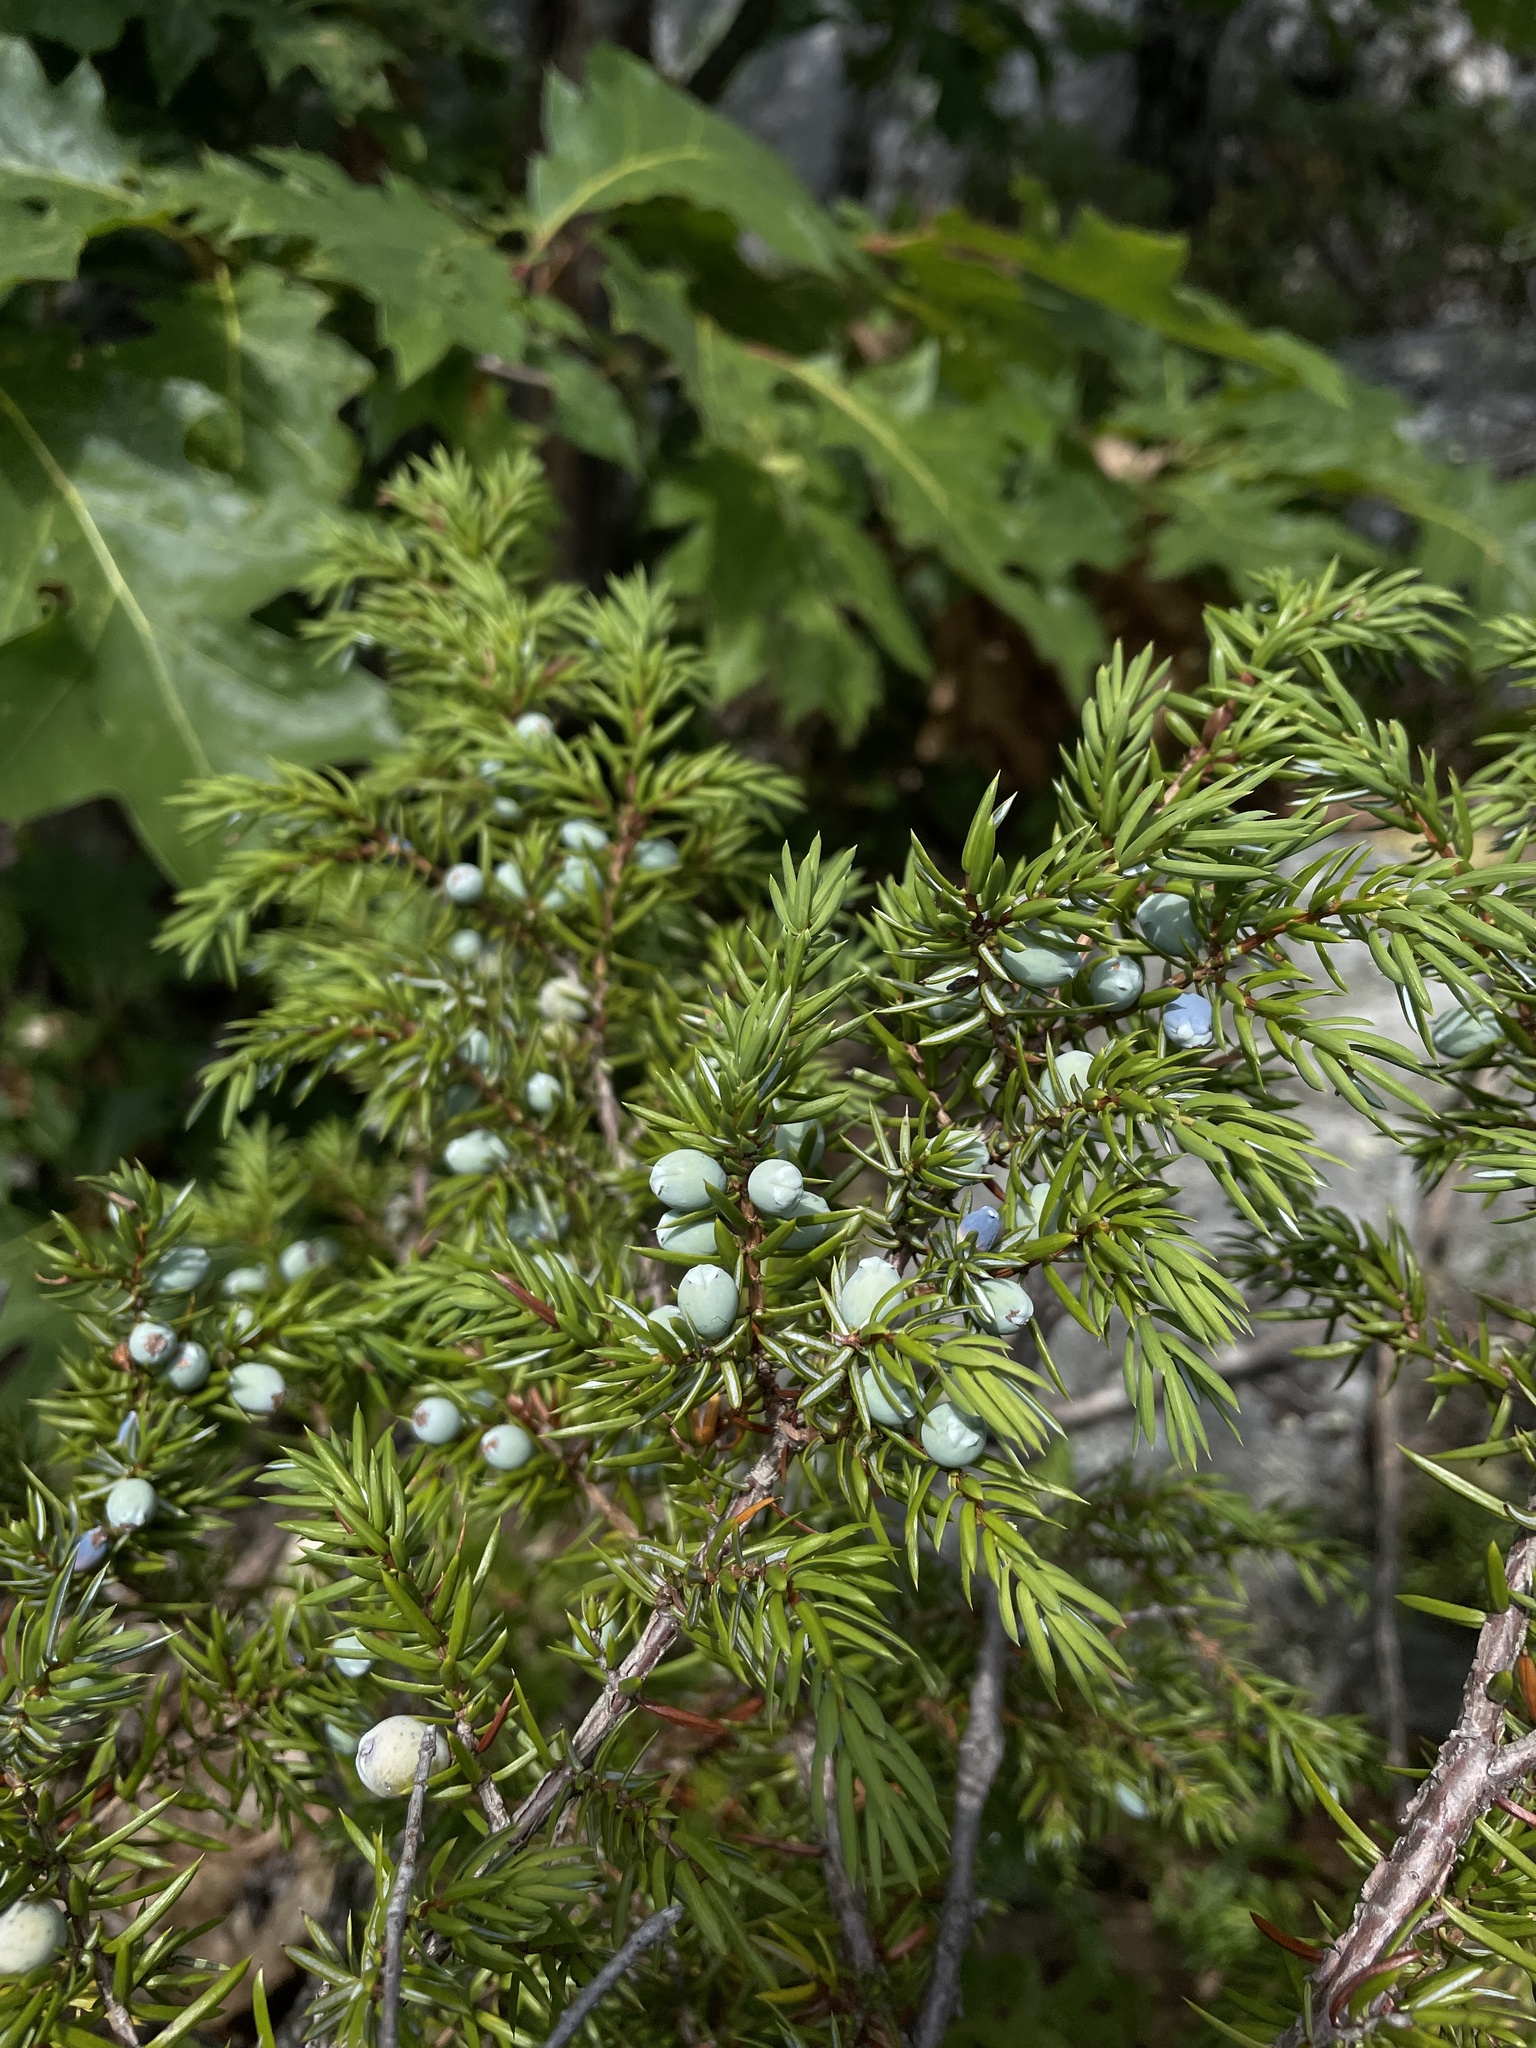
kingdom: Plantae
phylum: Tracheophyta
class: Pinopsida
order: Pinales
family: Cupressaceae
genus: Juniperus
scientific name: Juniperus communis
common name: Common juniper
